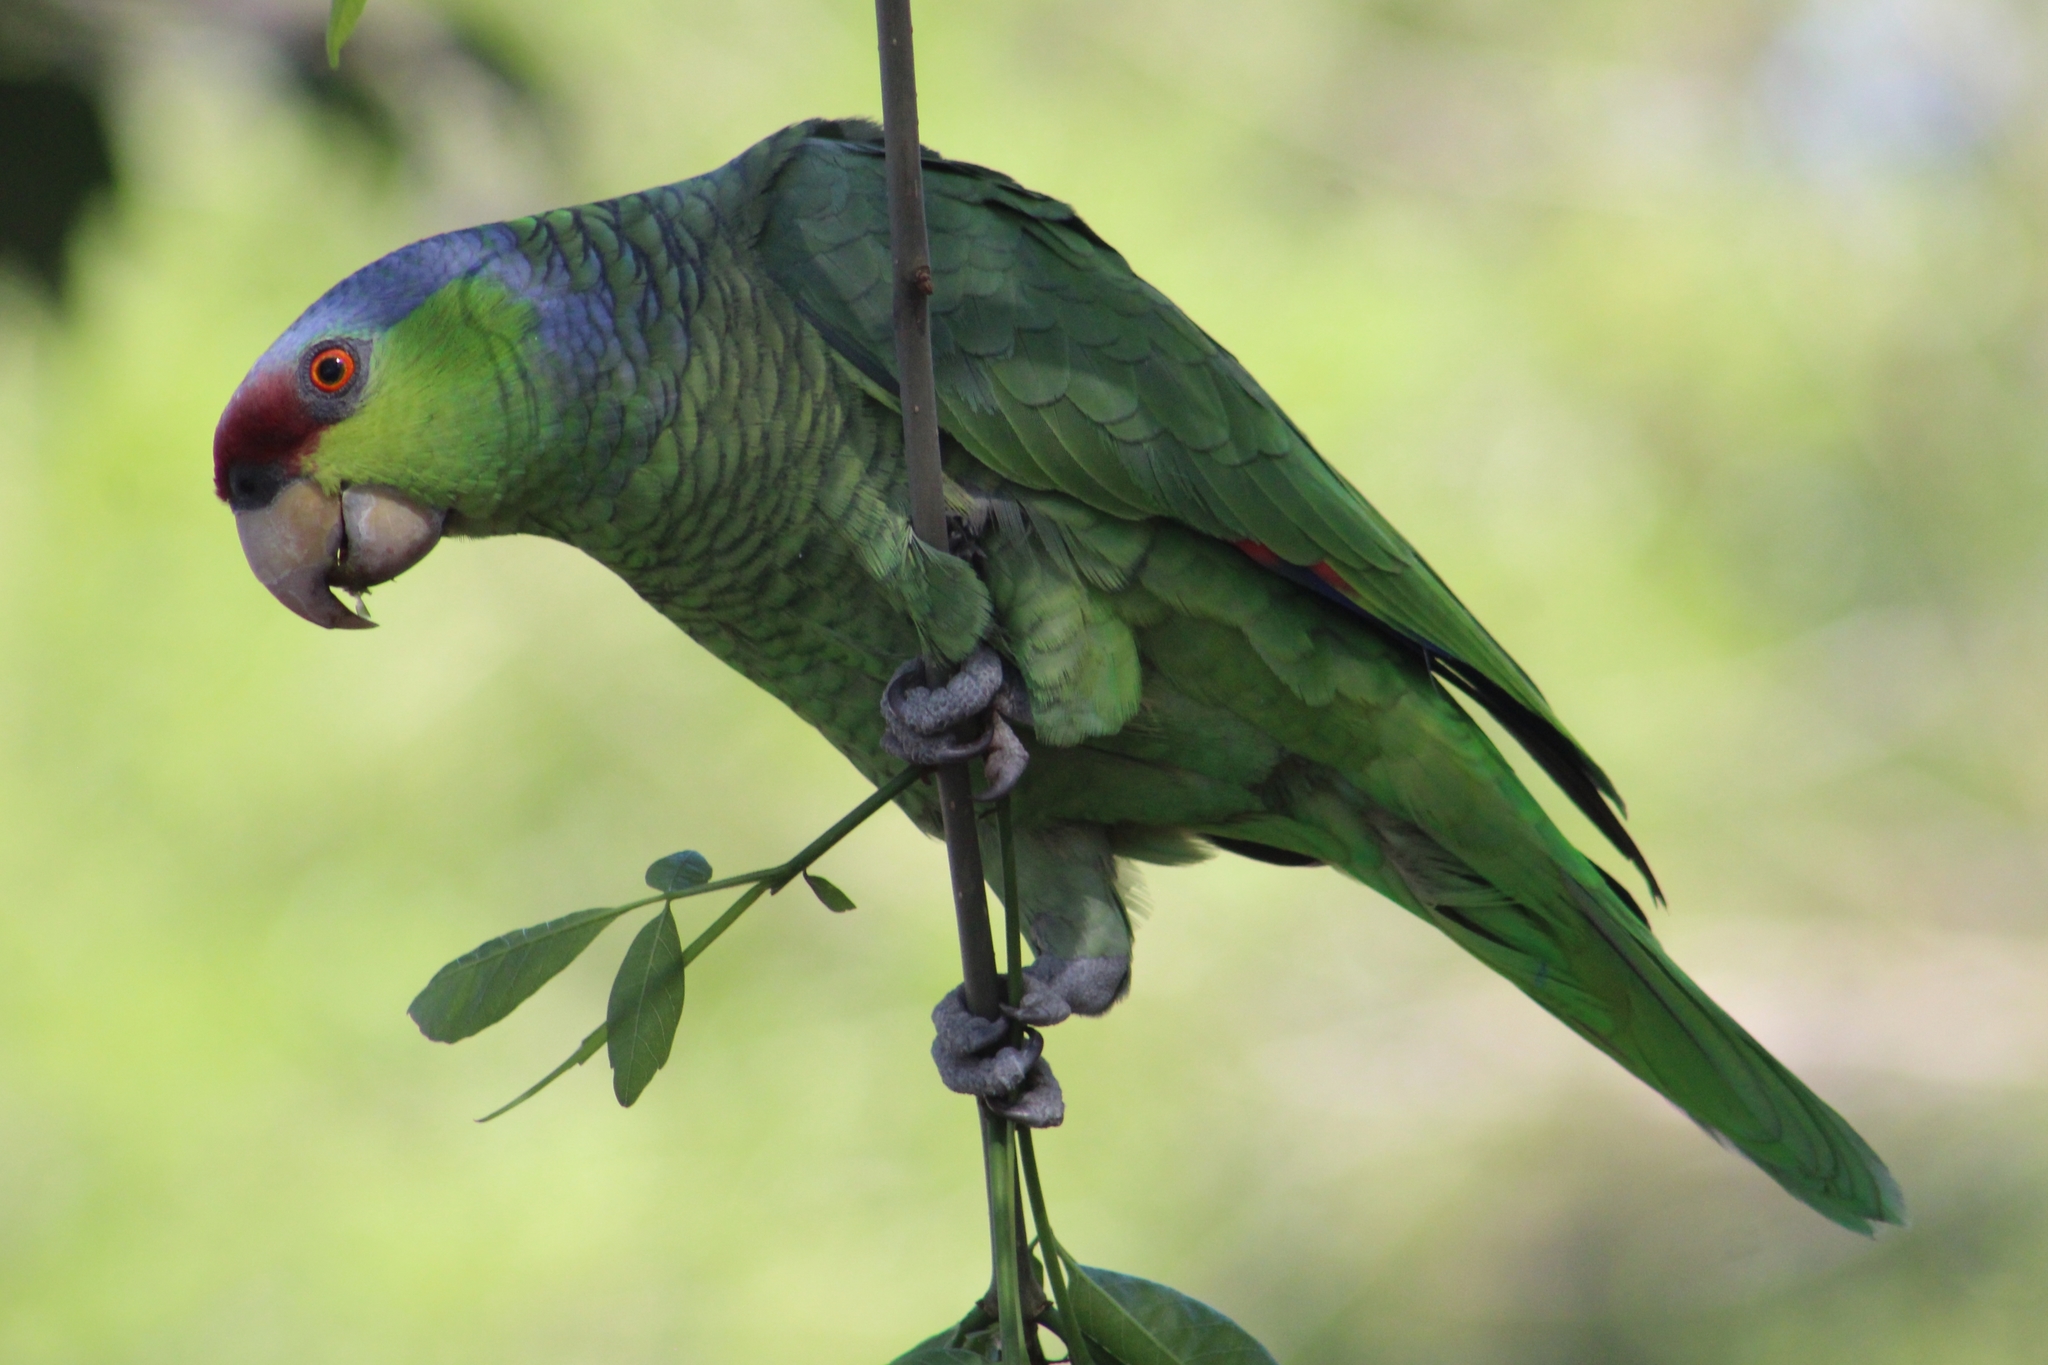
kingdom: Animalia
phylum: Chordata
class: Aves
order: Psittaciformes
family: Psittacidae
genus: Amazona
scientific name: Amazona finschi
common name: Lilac-crowned amazon
